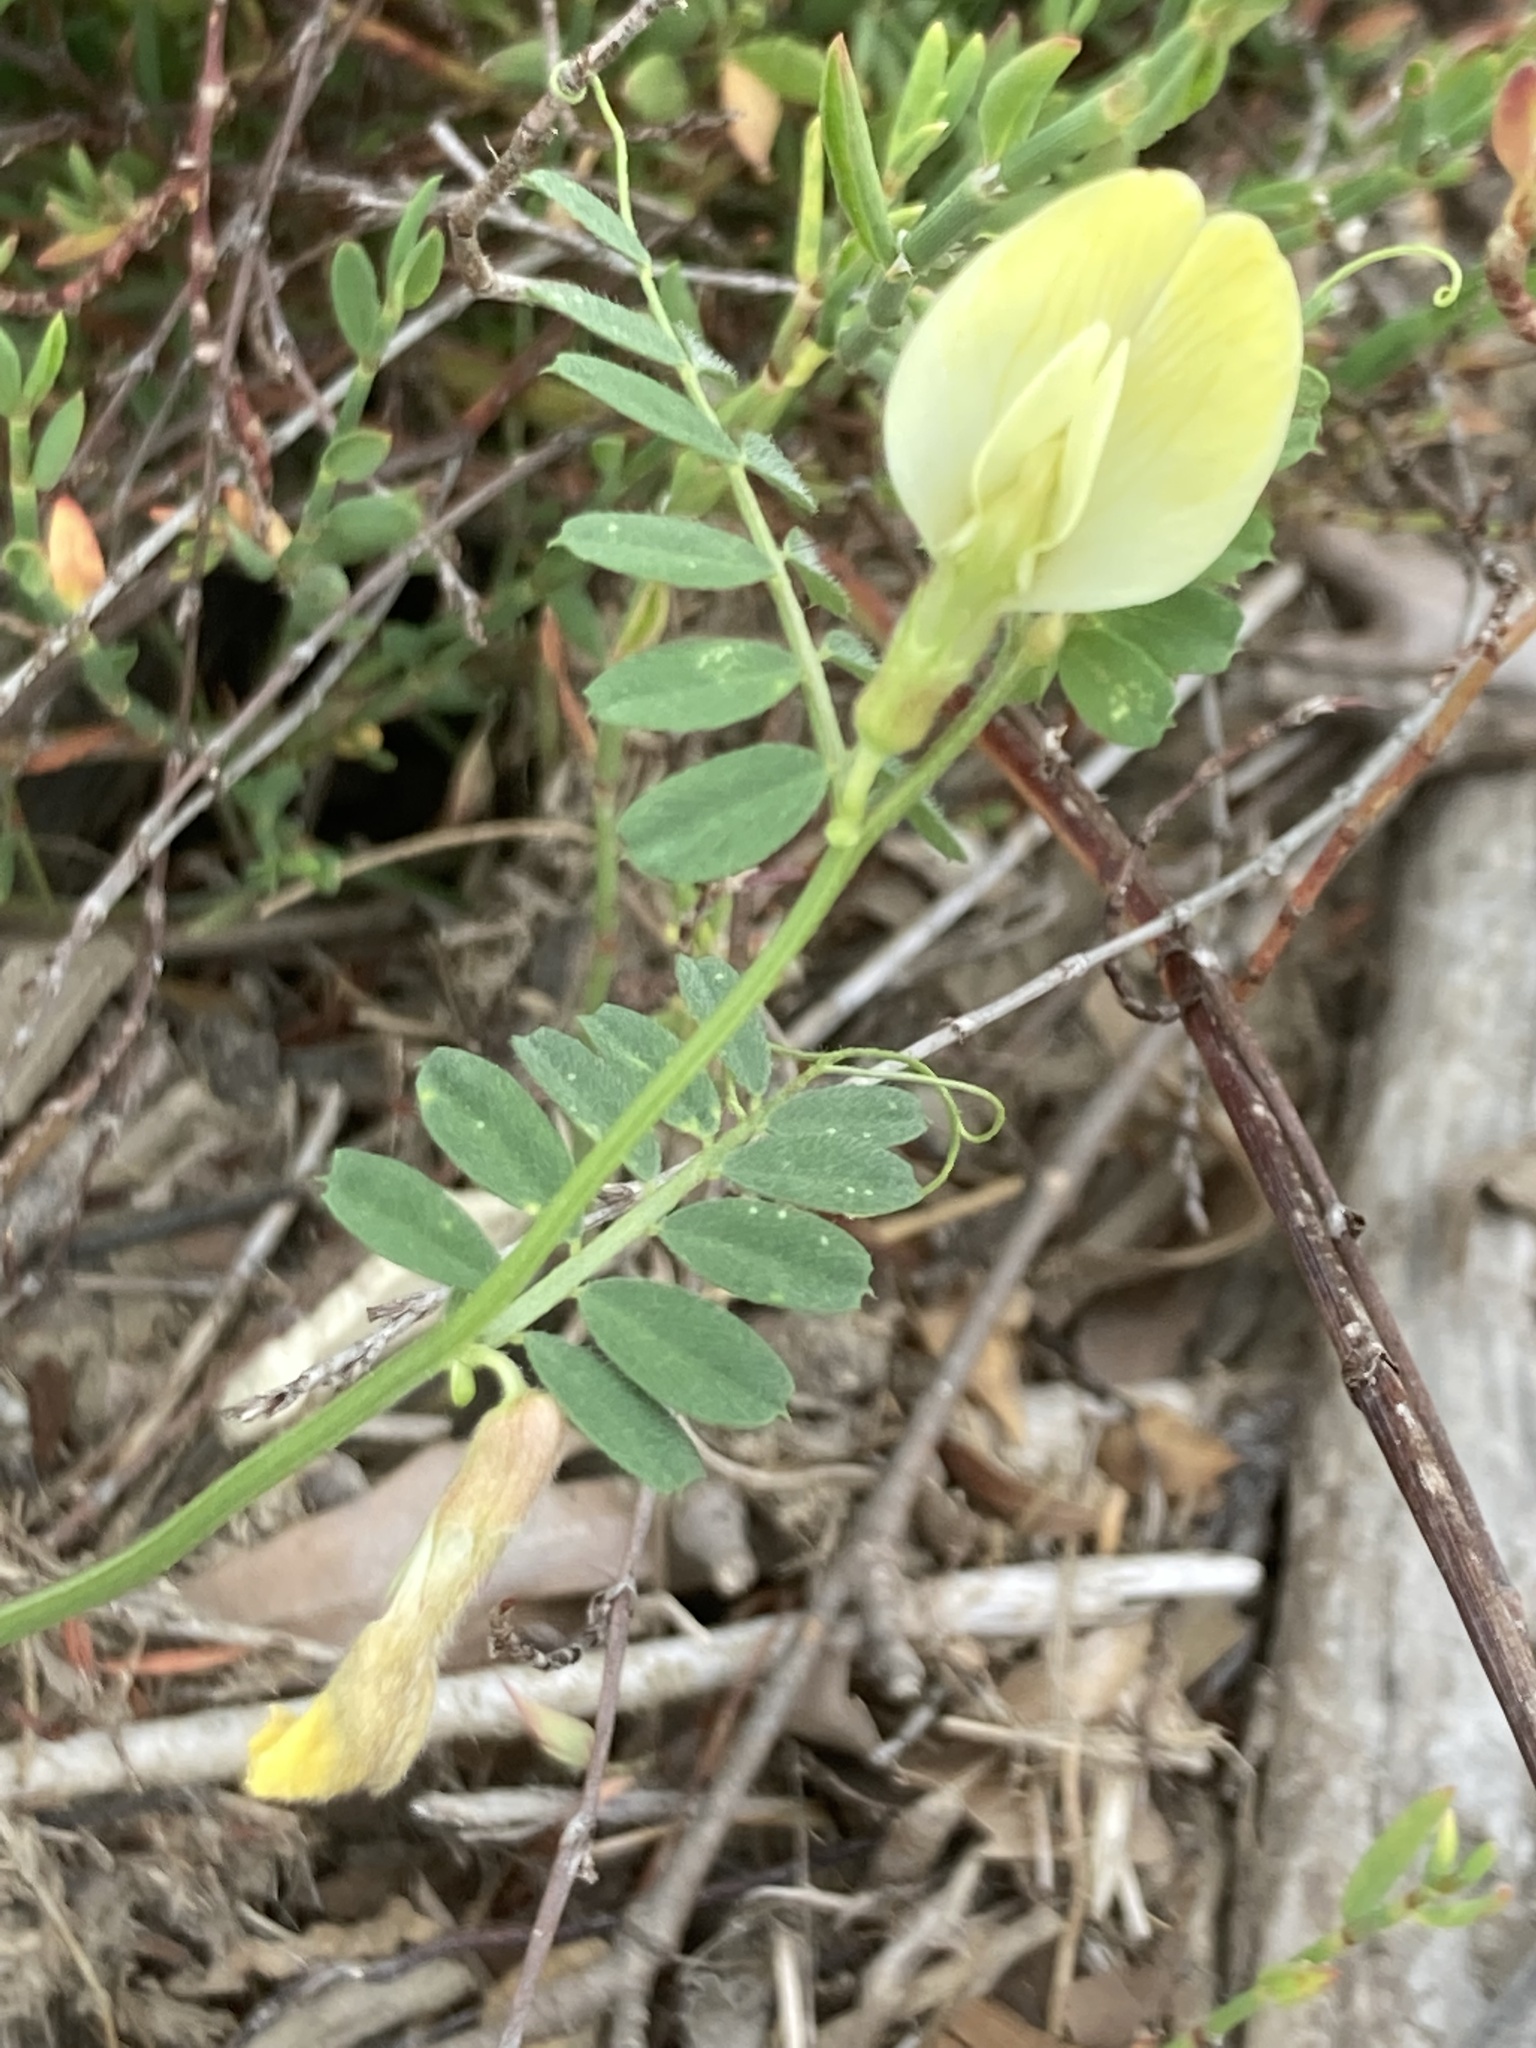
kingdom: Plantae
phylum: Tracheophyta
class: Magnoliopsida
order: Fabales
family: Fabaceae
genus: Vicia
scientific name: Vicia hybrida
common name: Hairy yellow vetch
